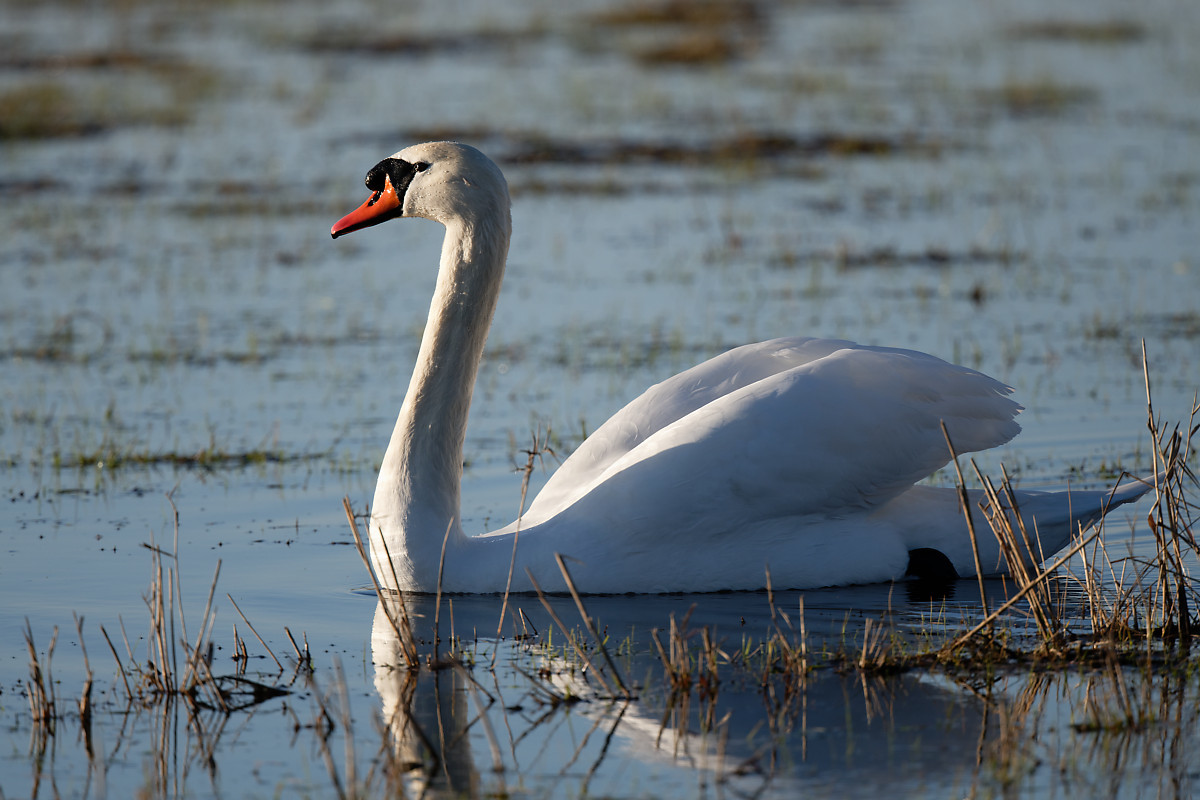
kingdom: Animalia
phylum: Chordata
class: Aves
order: Anseriformes
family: Anatidae
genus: Cygnus
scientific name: Cygnus olor
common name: Mute swan
